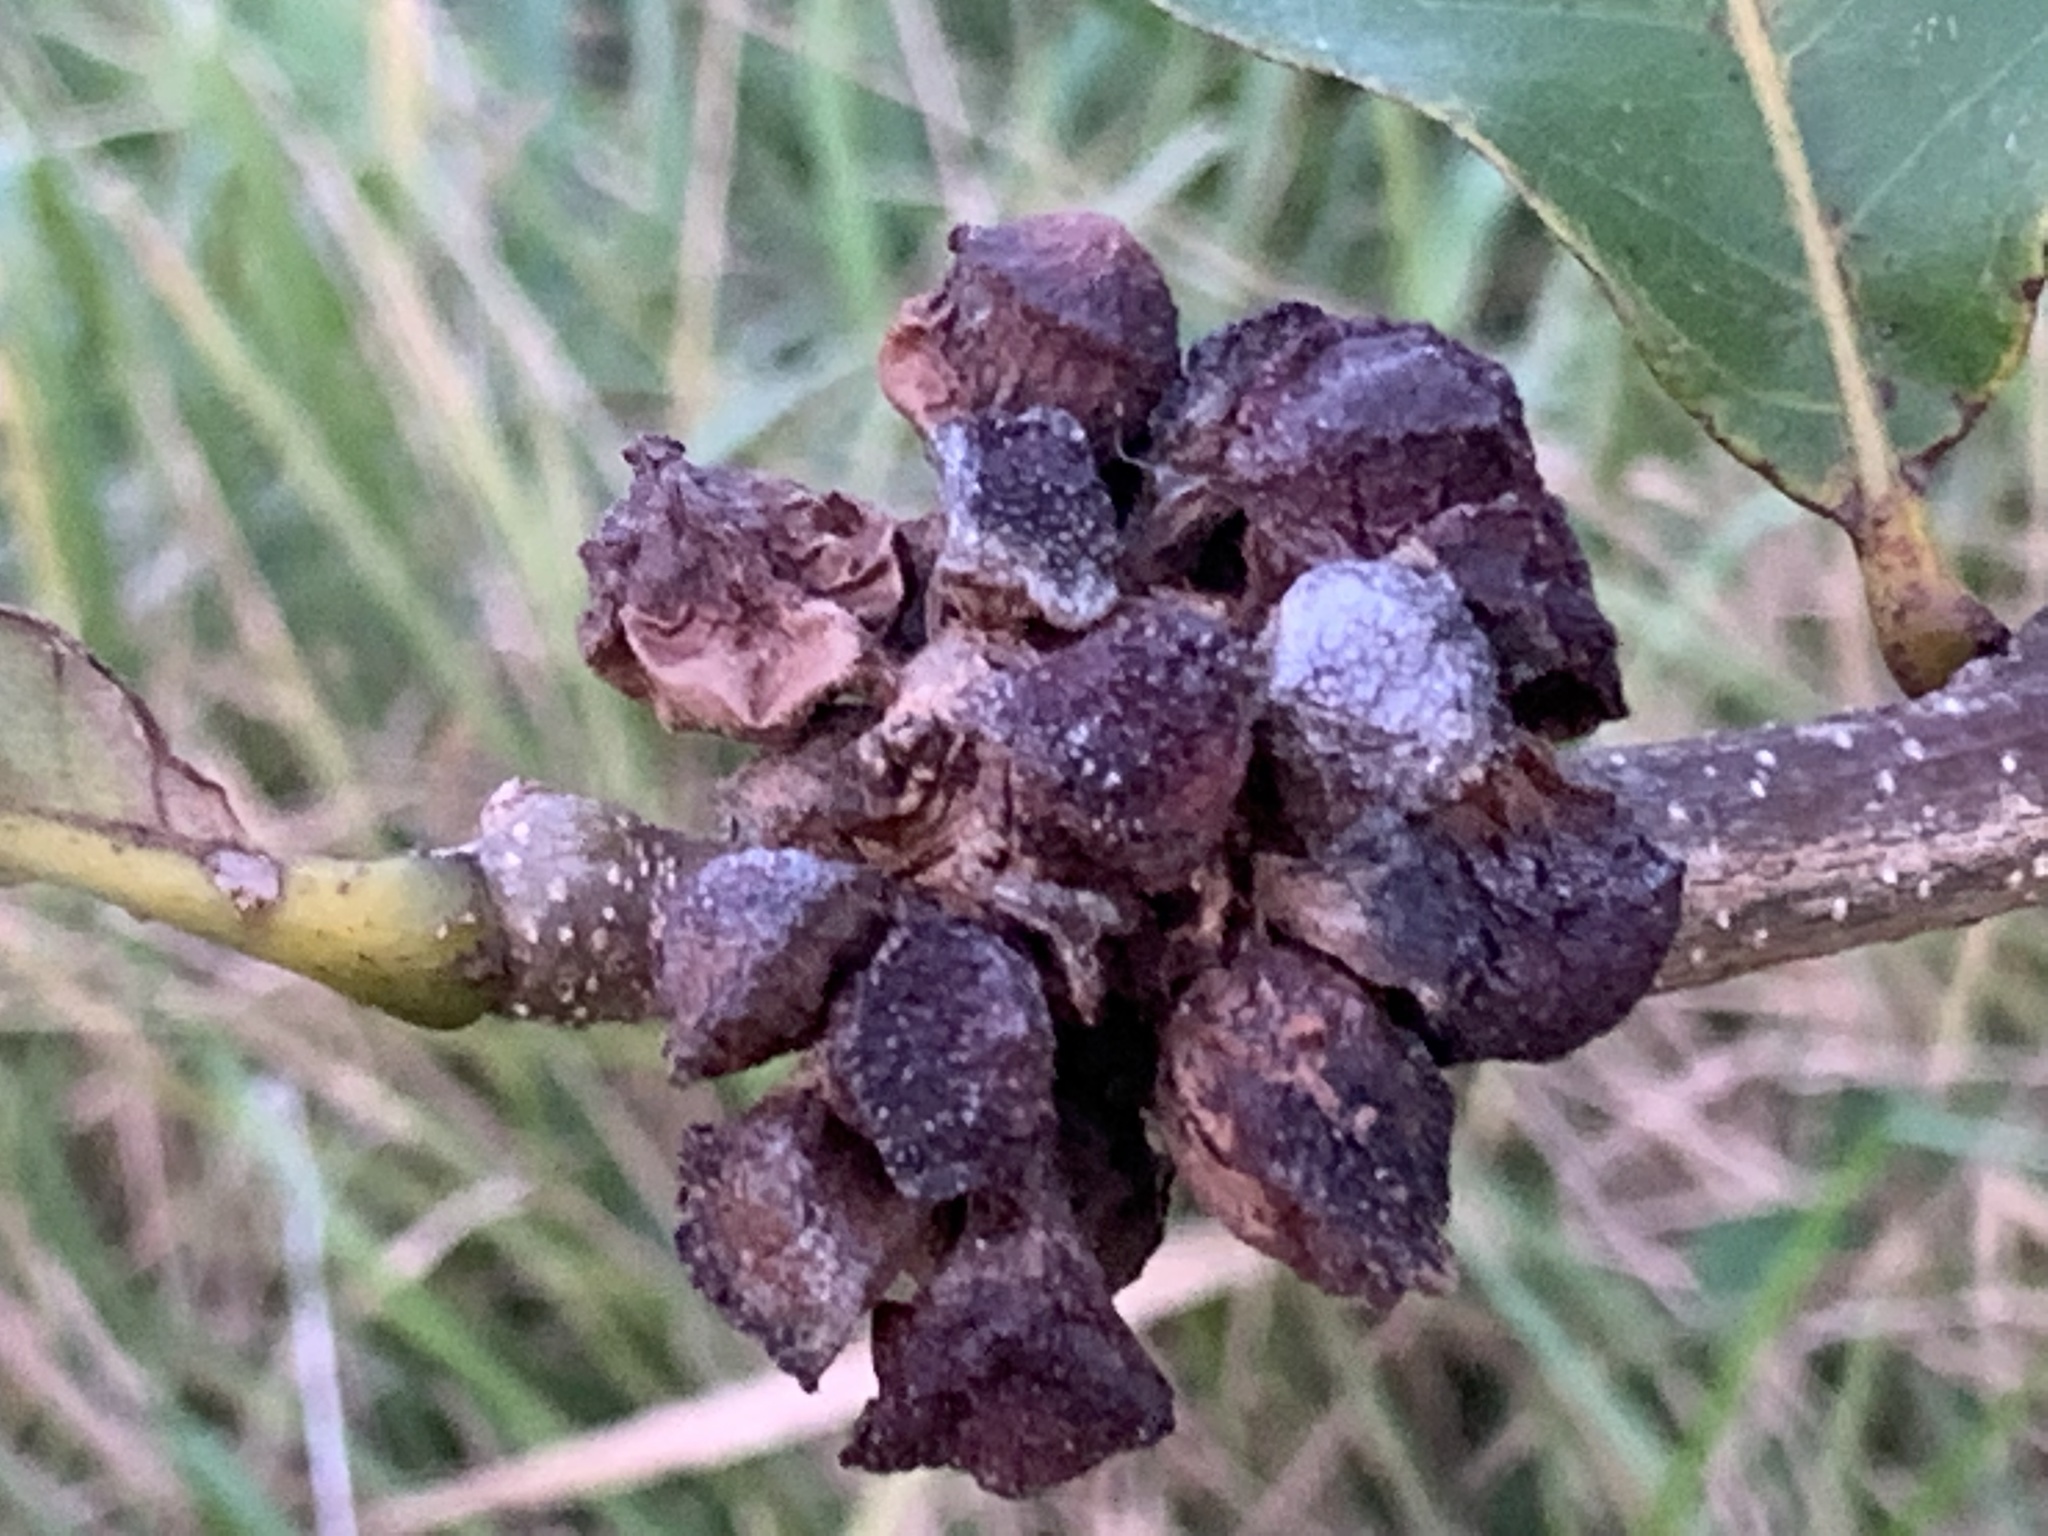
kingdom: Animalia
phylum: Arthropoda
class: Insecta
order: Hymenoptera
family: Cynipidae
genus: Andricus
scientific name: Andricus
